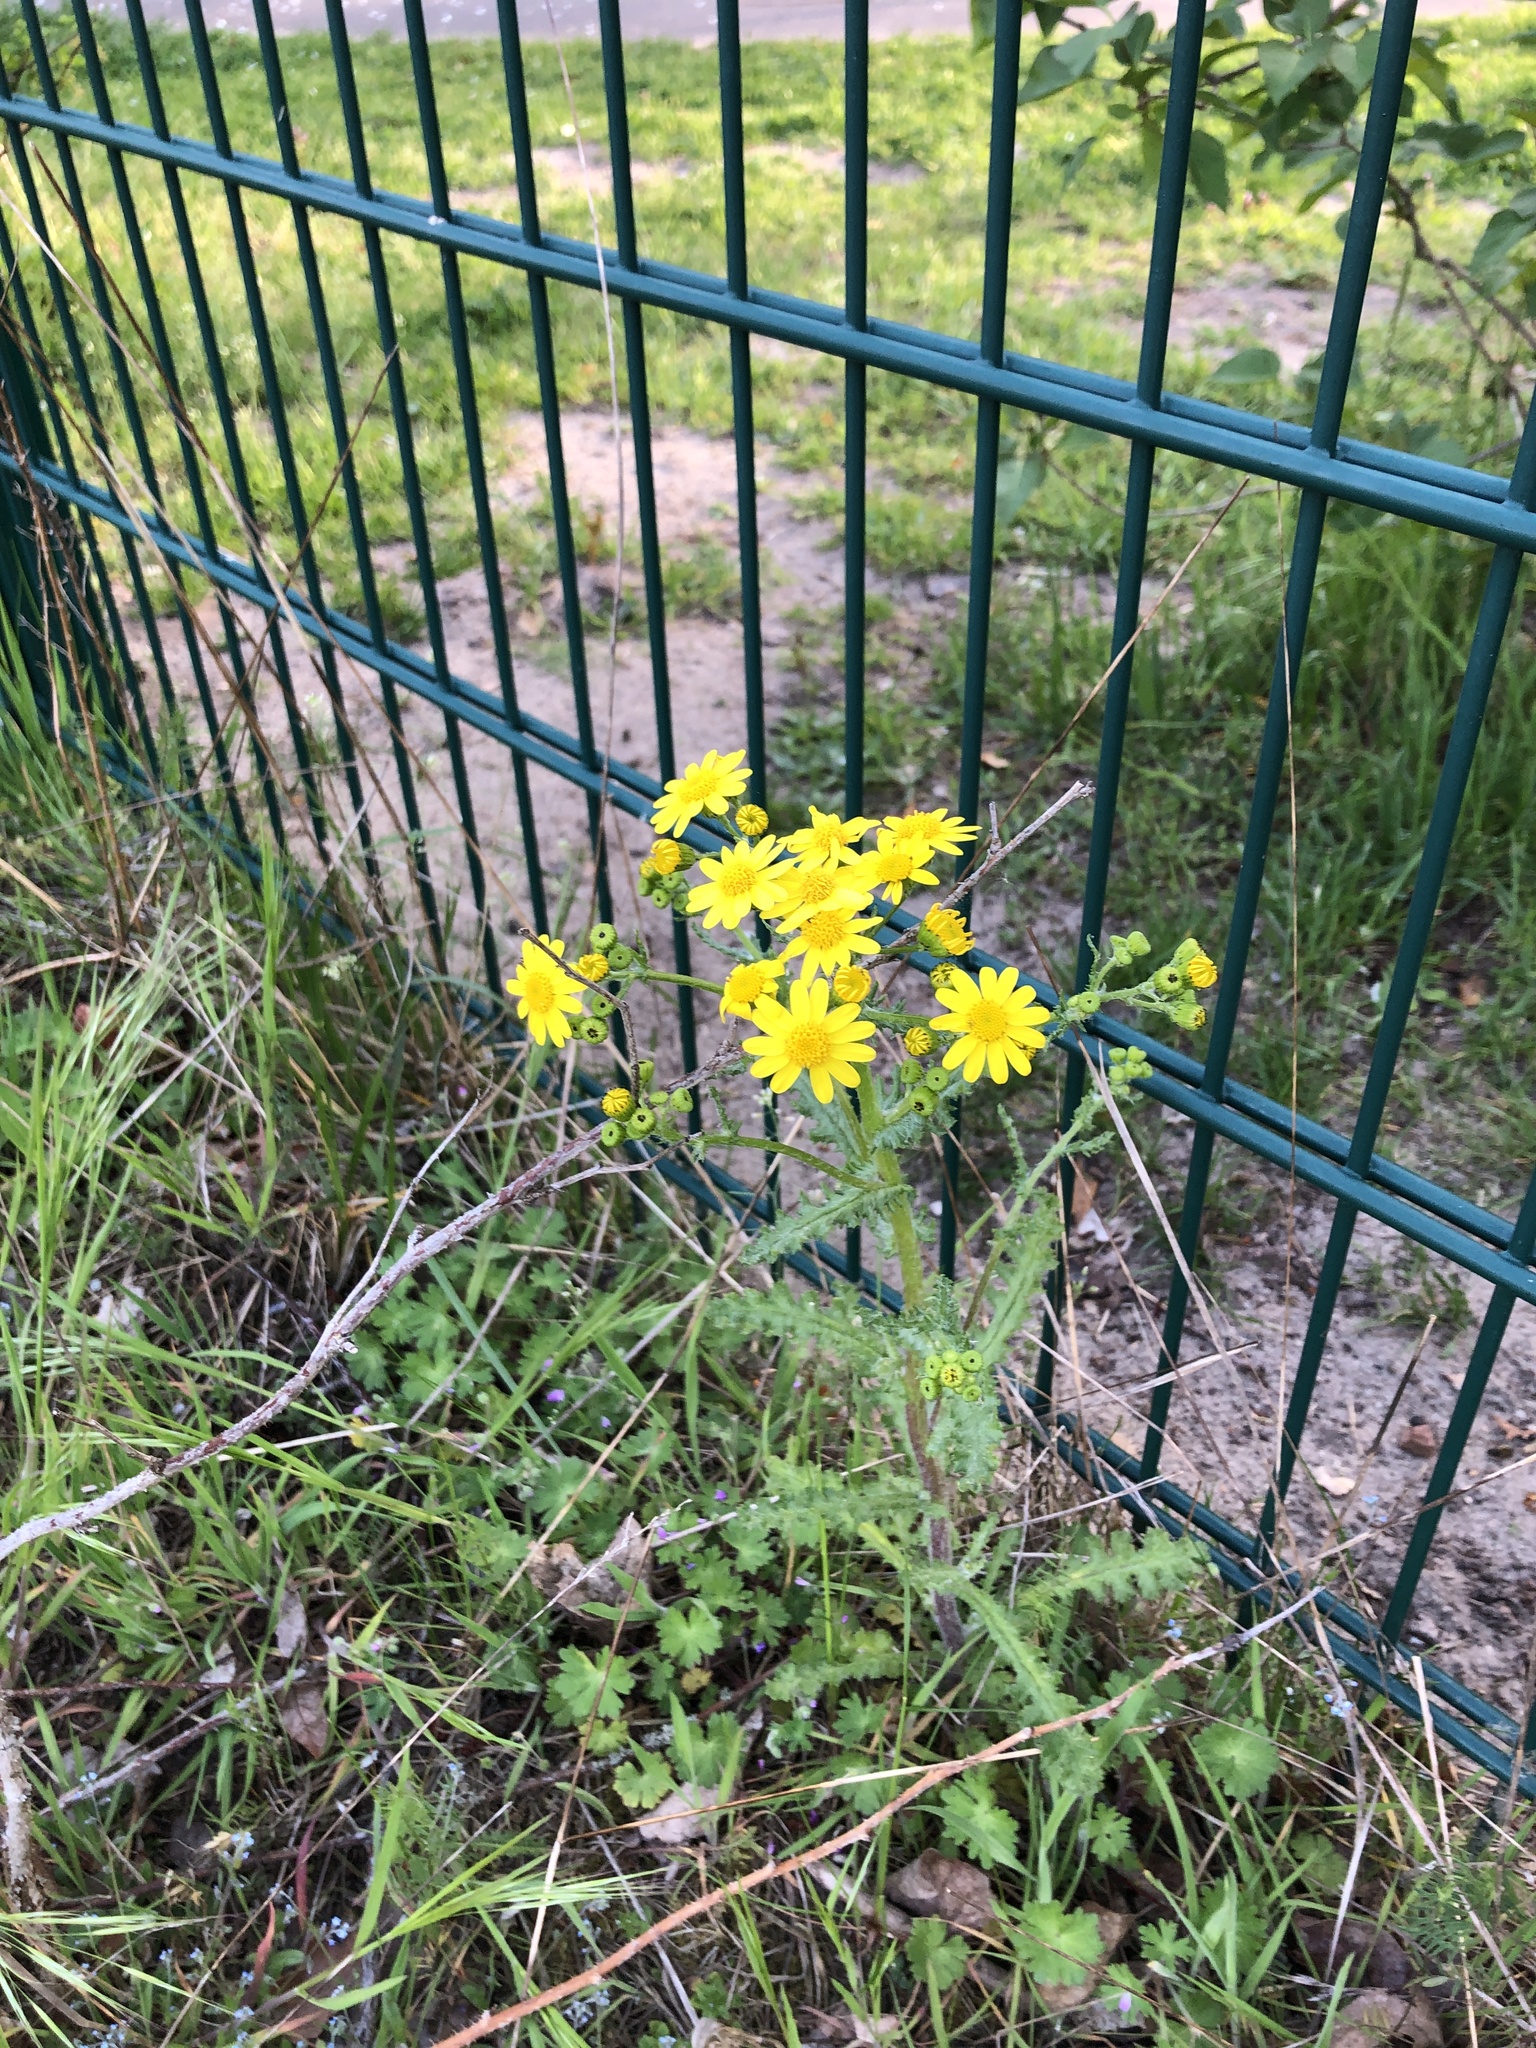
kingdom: Plantae
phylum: Tracheophyta
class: Magnoliopsida
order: Asterales
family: Asteraceae
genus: Senecio
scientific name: Senecio vernalis
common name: Eastern groundsel
